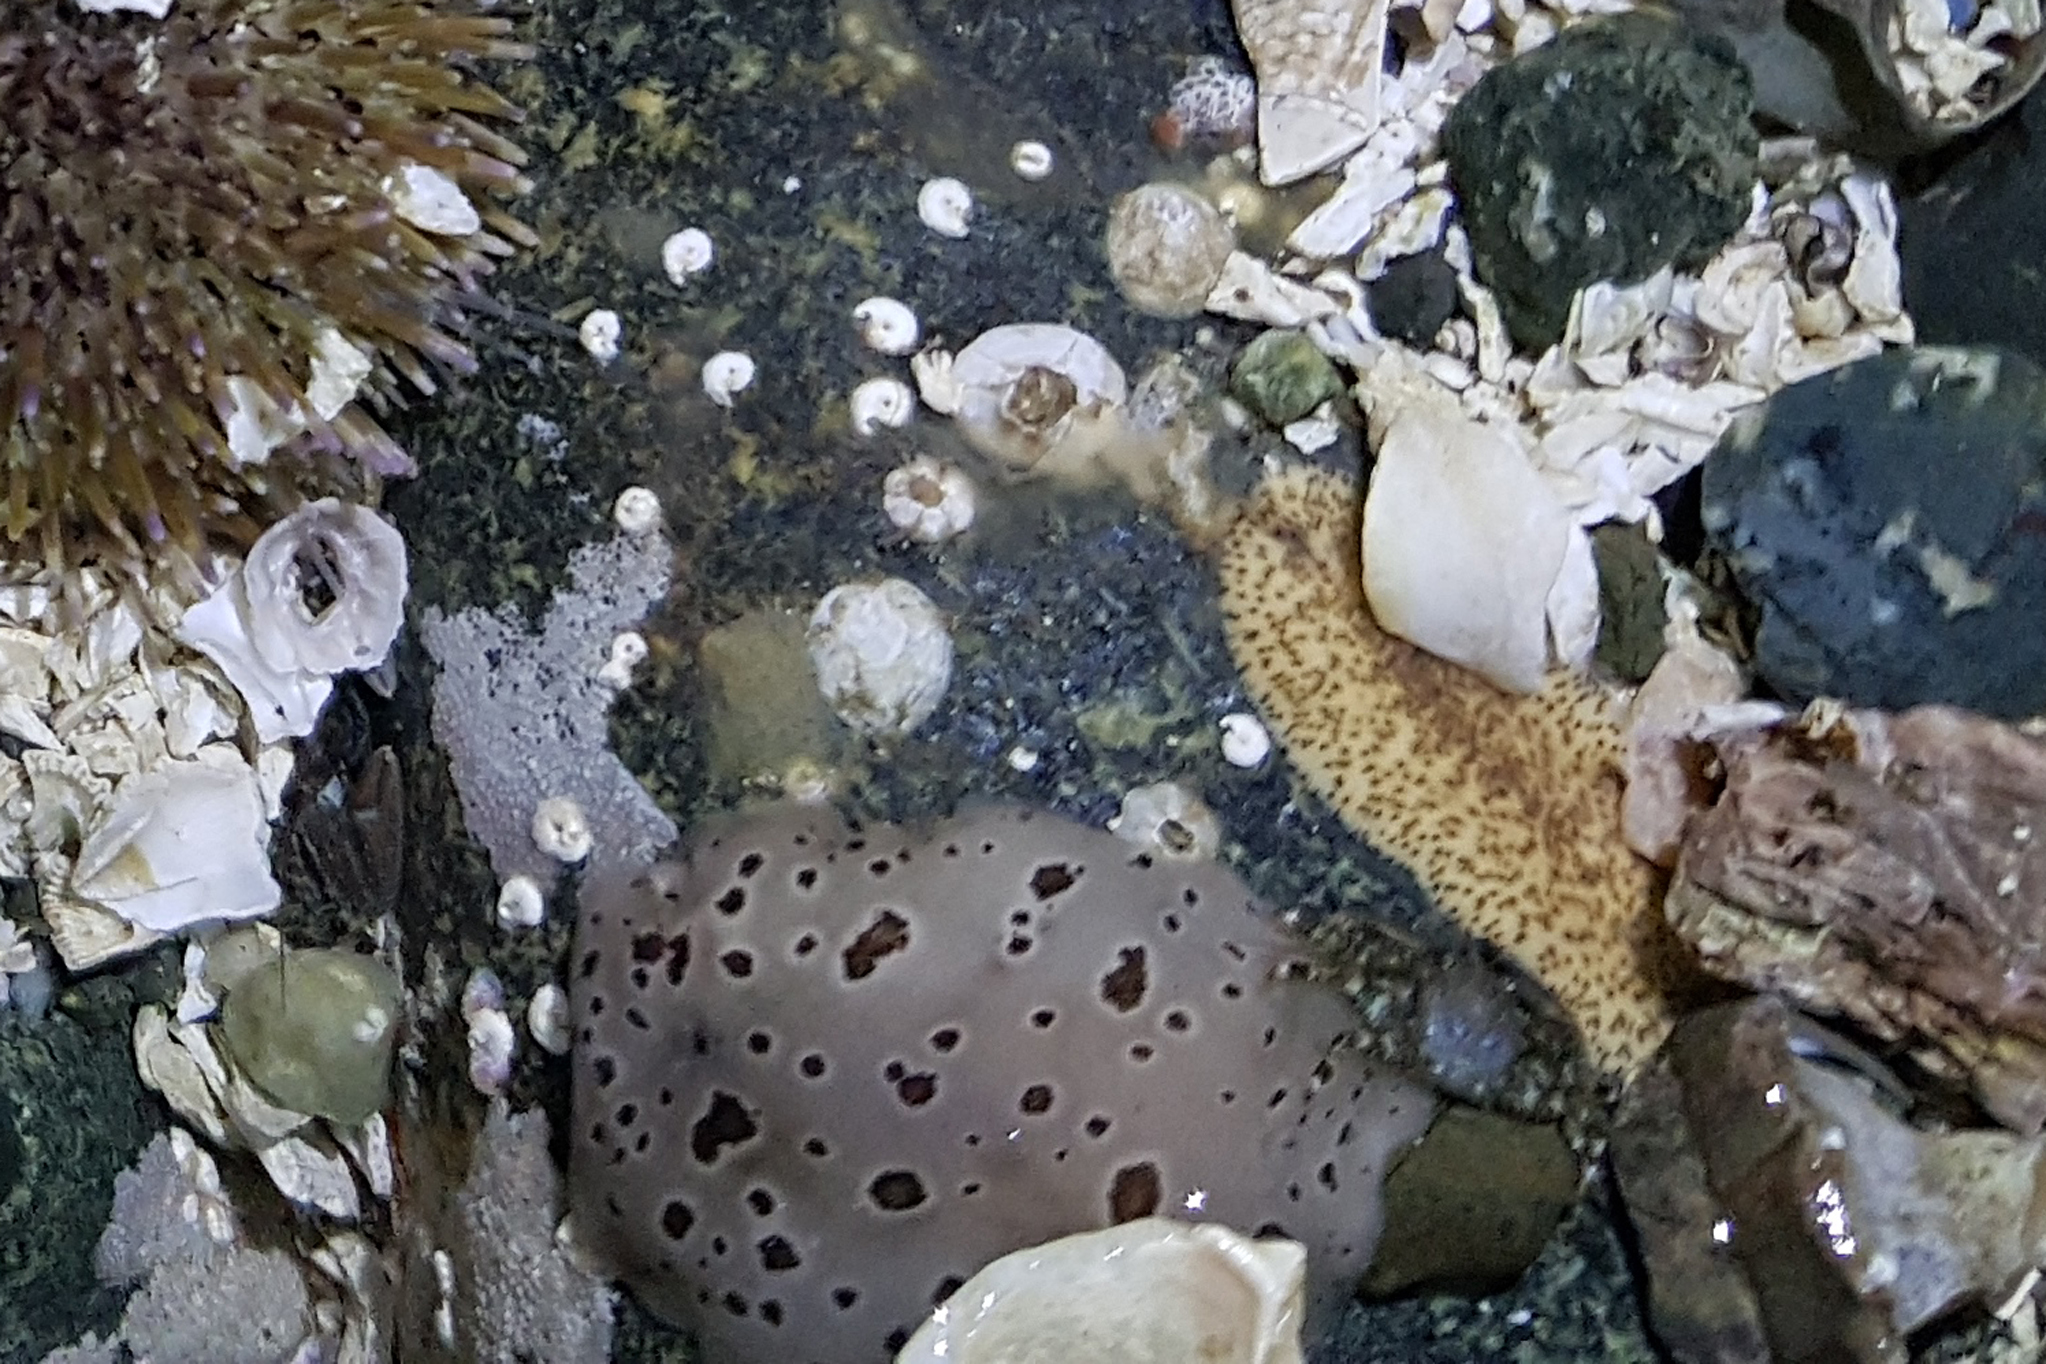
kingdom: Animalia
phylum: Mollusca
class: Gastropoda
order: Nudibranchia
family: Discodorididae
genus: Diaulula
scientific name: Diaulula odonoghuei
